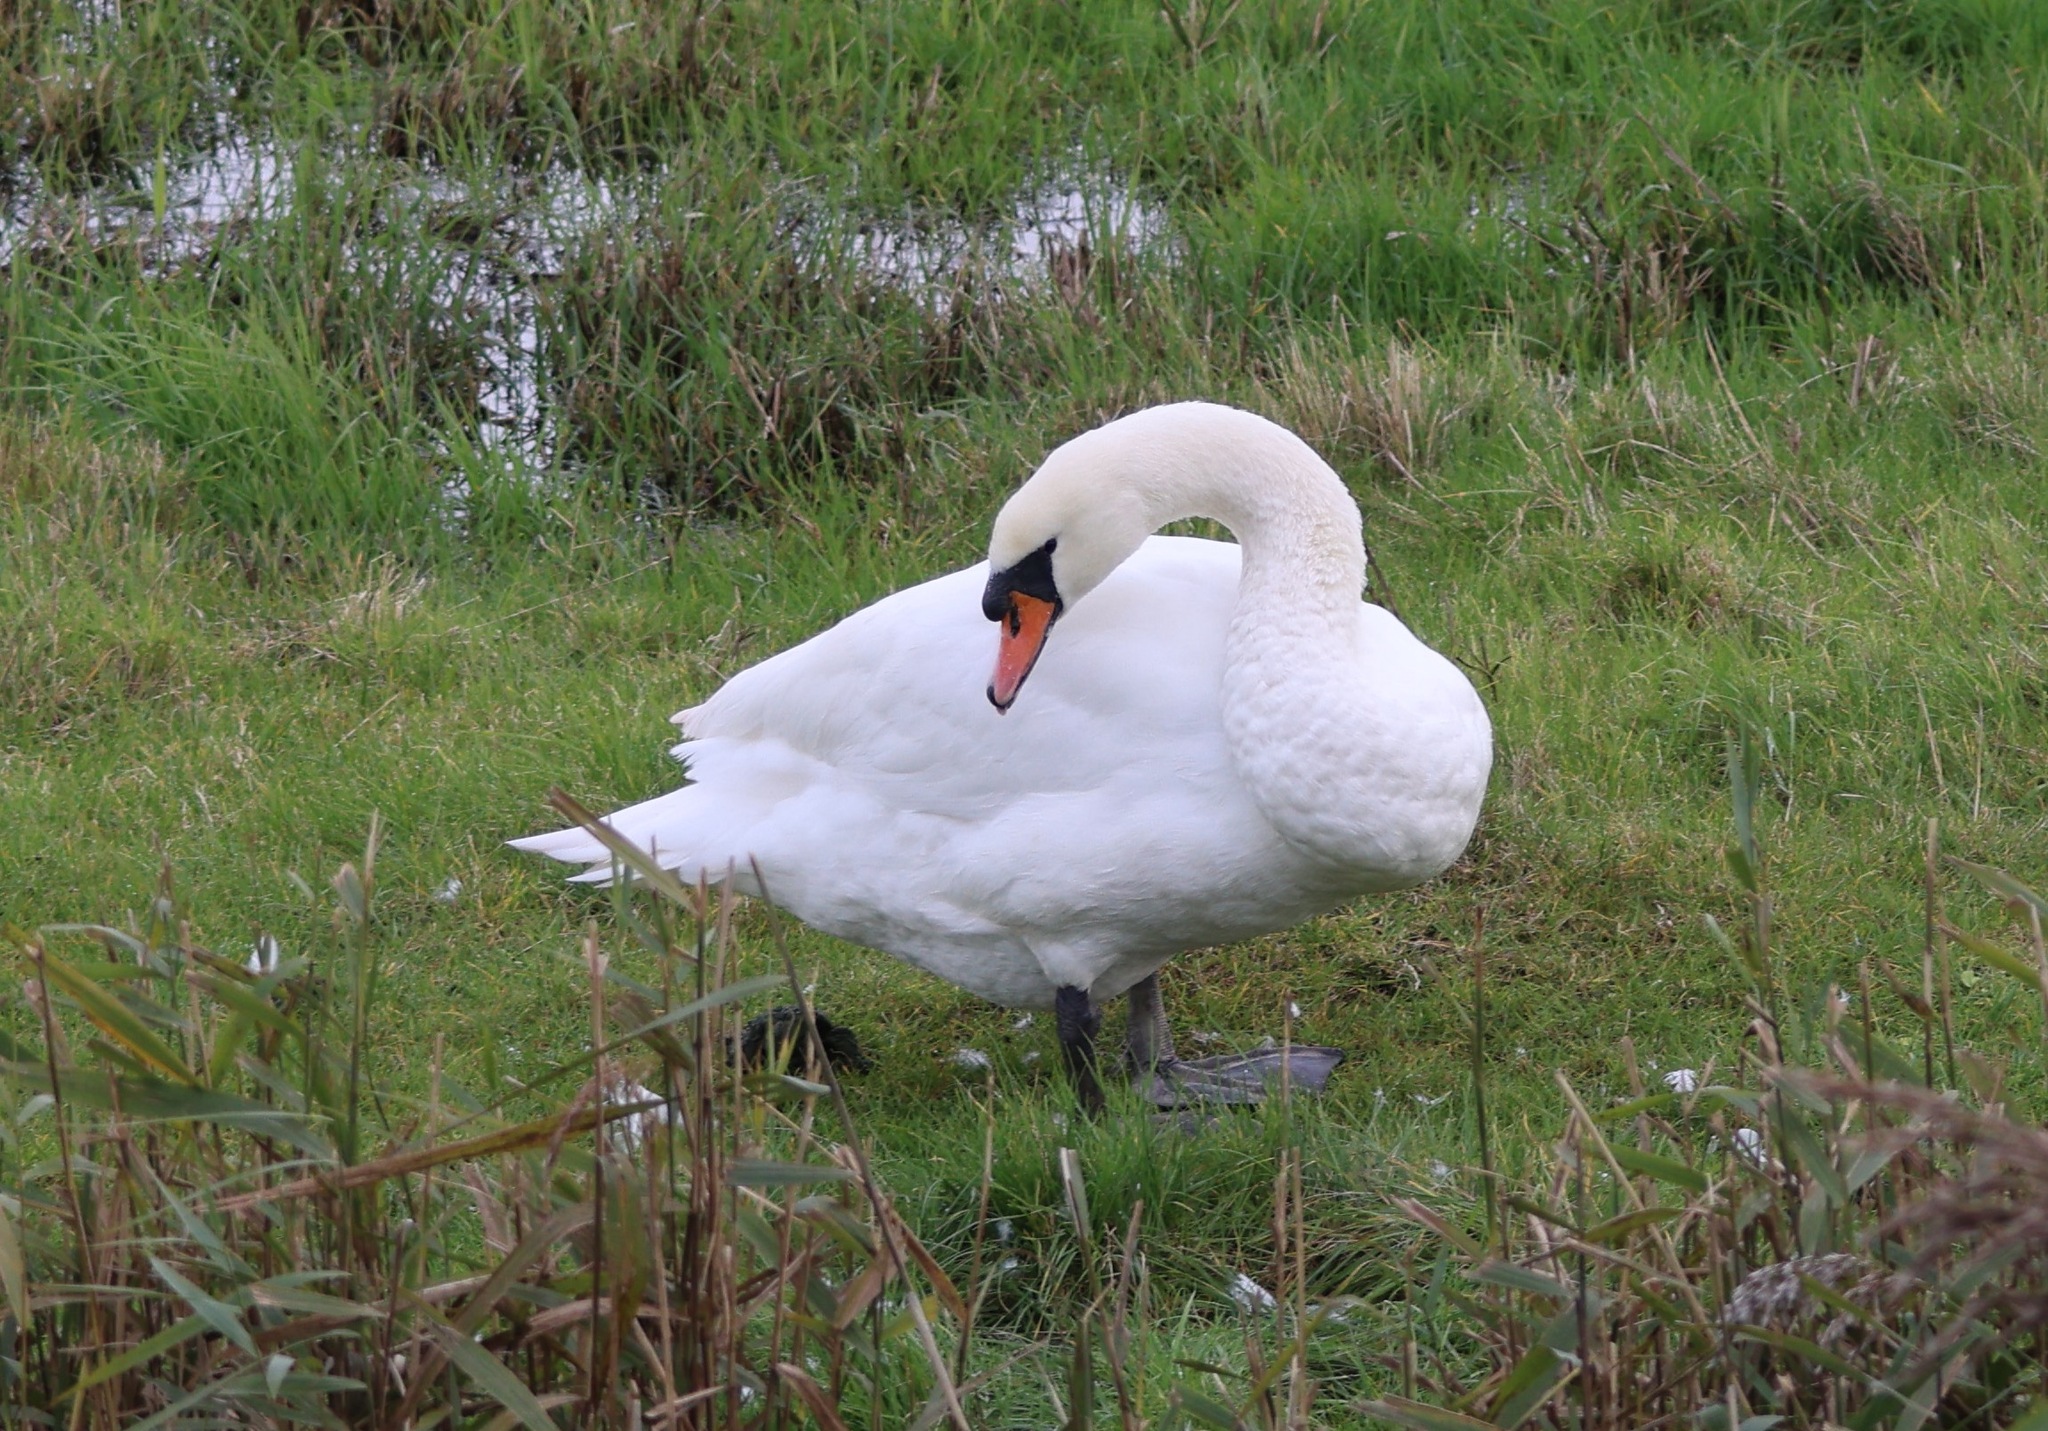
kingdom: Animalia
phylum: Chordata
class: Aves
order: Anseriformes
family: Anatidae
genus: Cygnus
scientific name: Cygnus olor
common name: Mute swan
